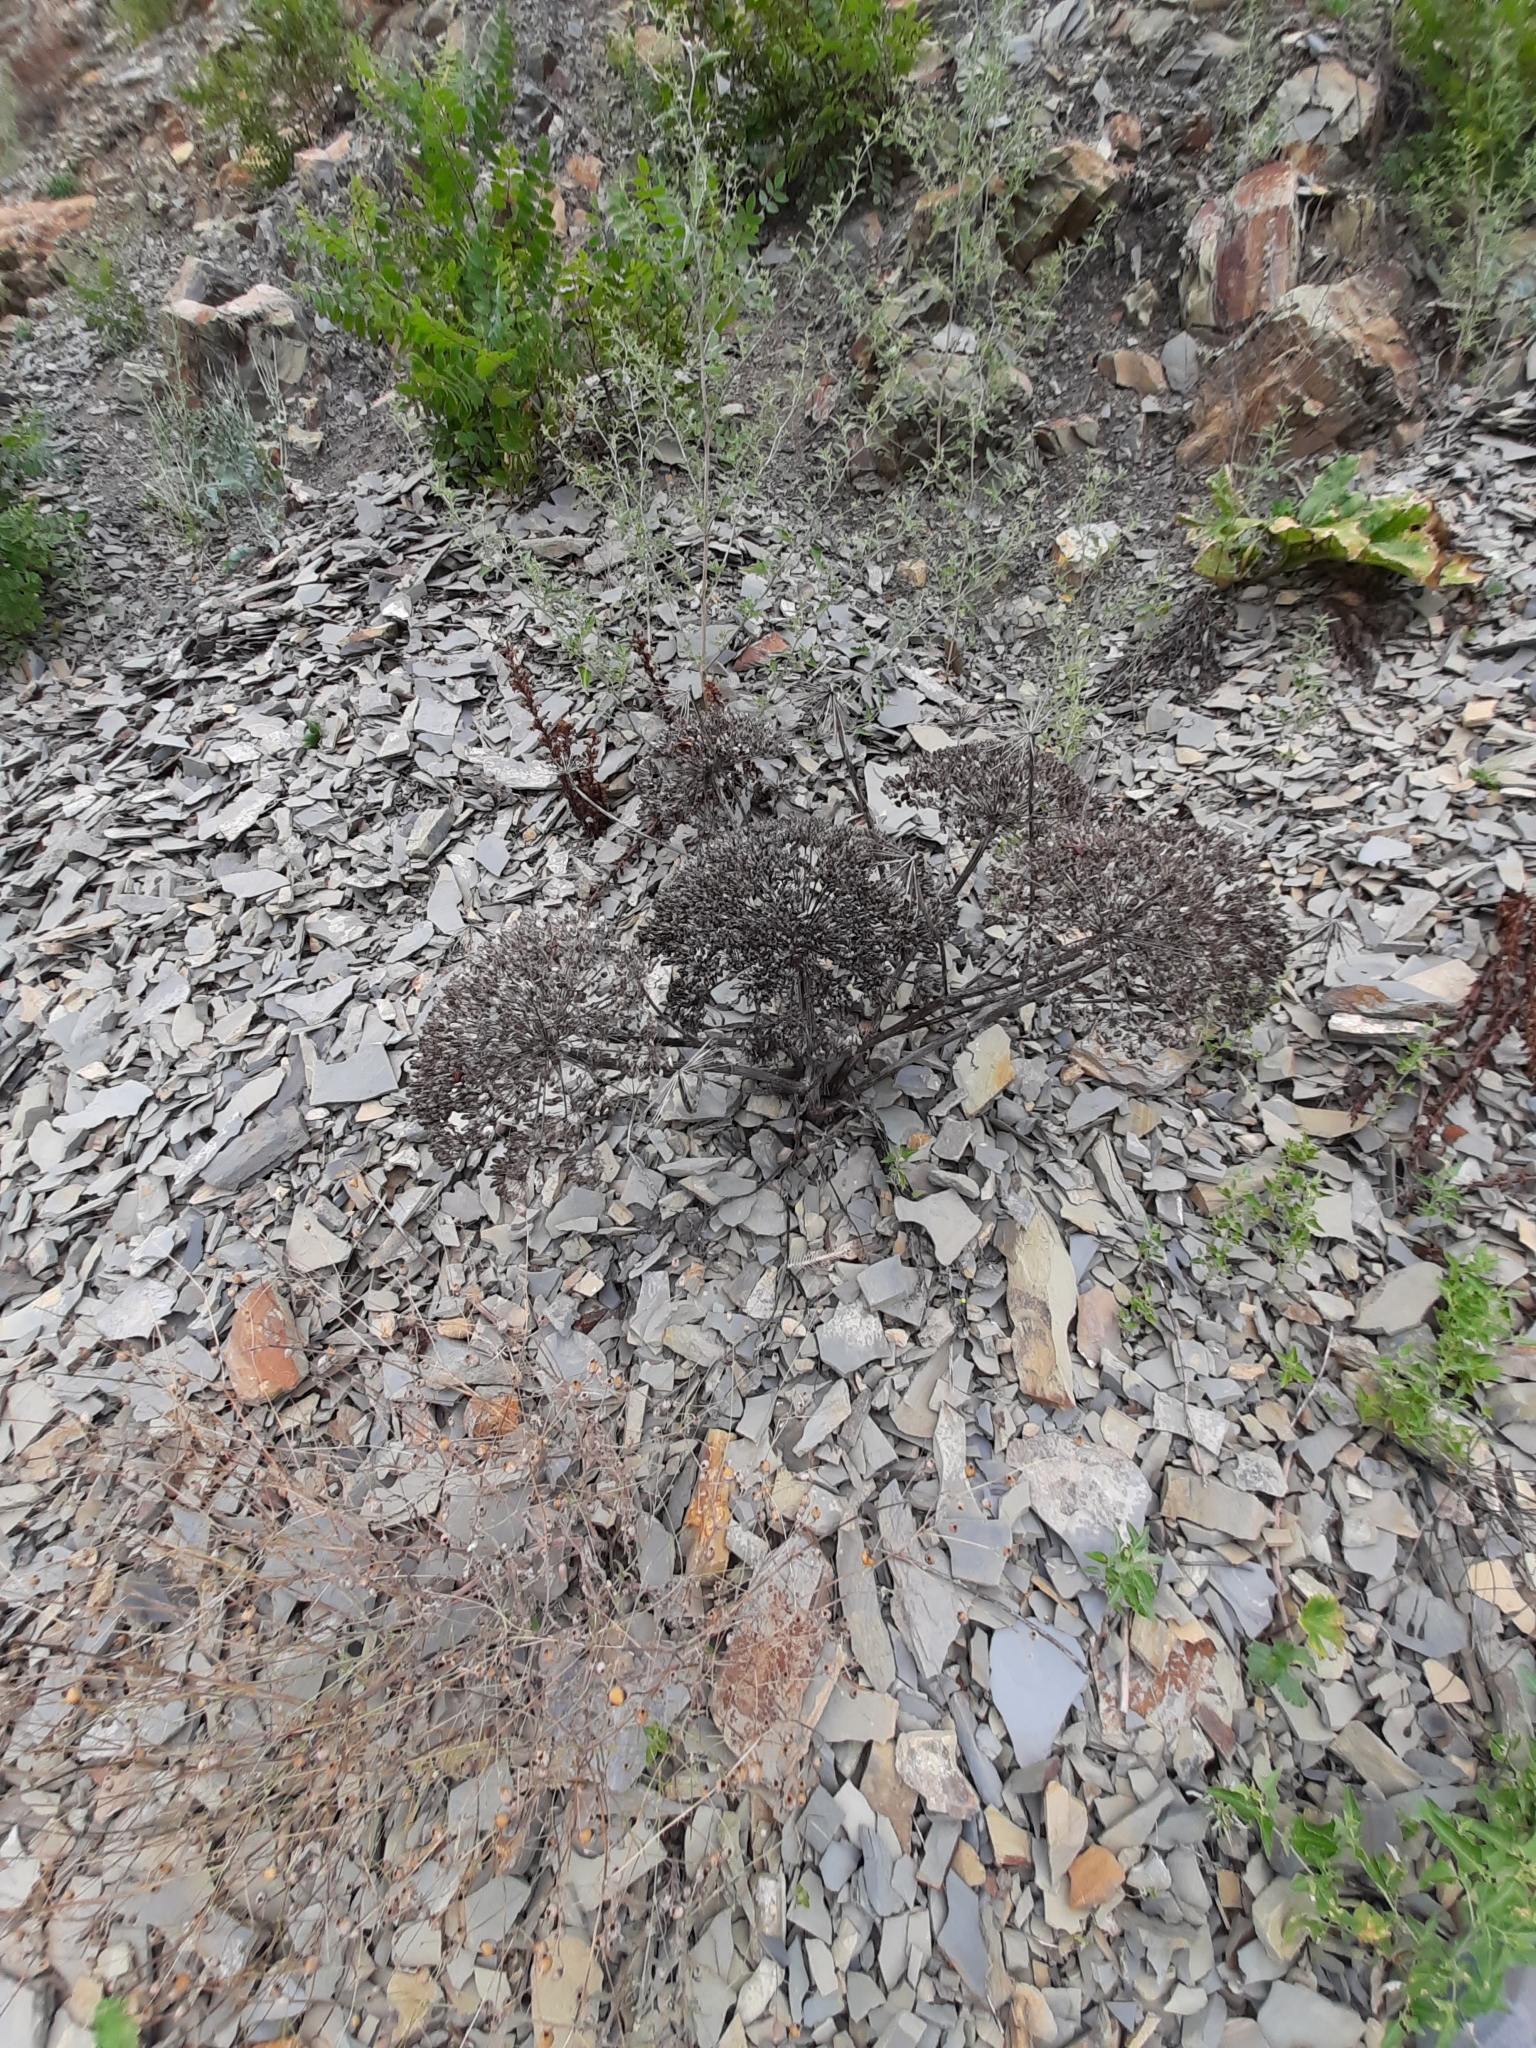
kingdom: Plantae
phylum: Tracheophyta
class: Magnoliopsida
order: Apiales
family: Apiaceae
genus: Heracleum
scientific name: Heracleum stevenii
